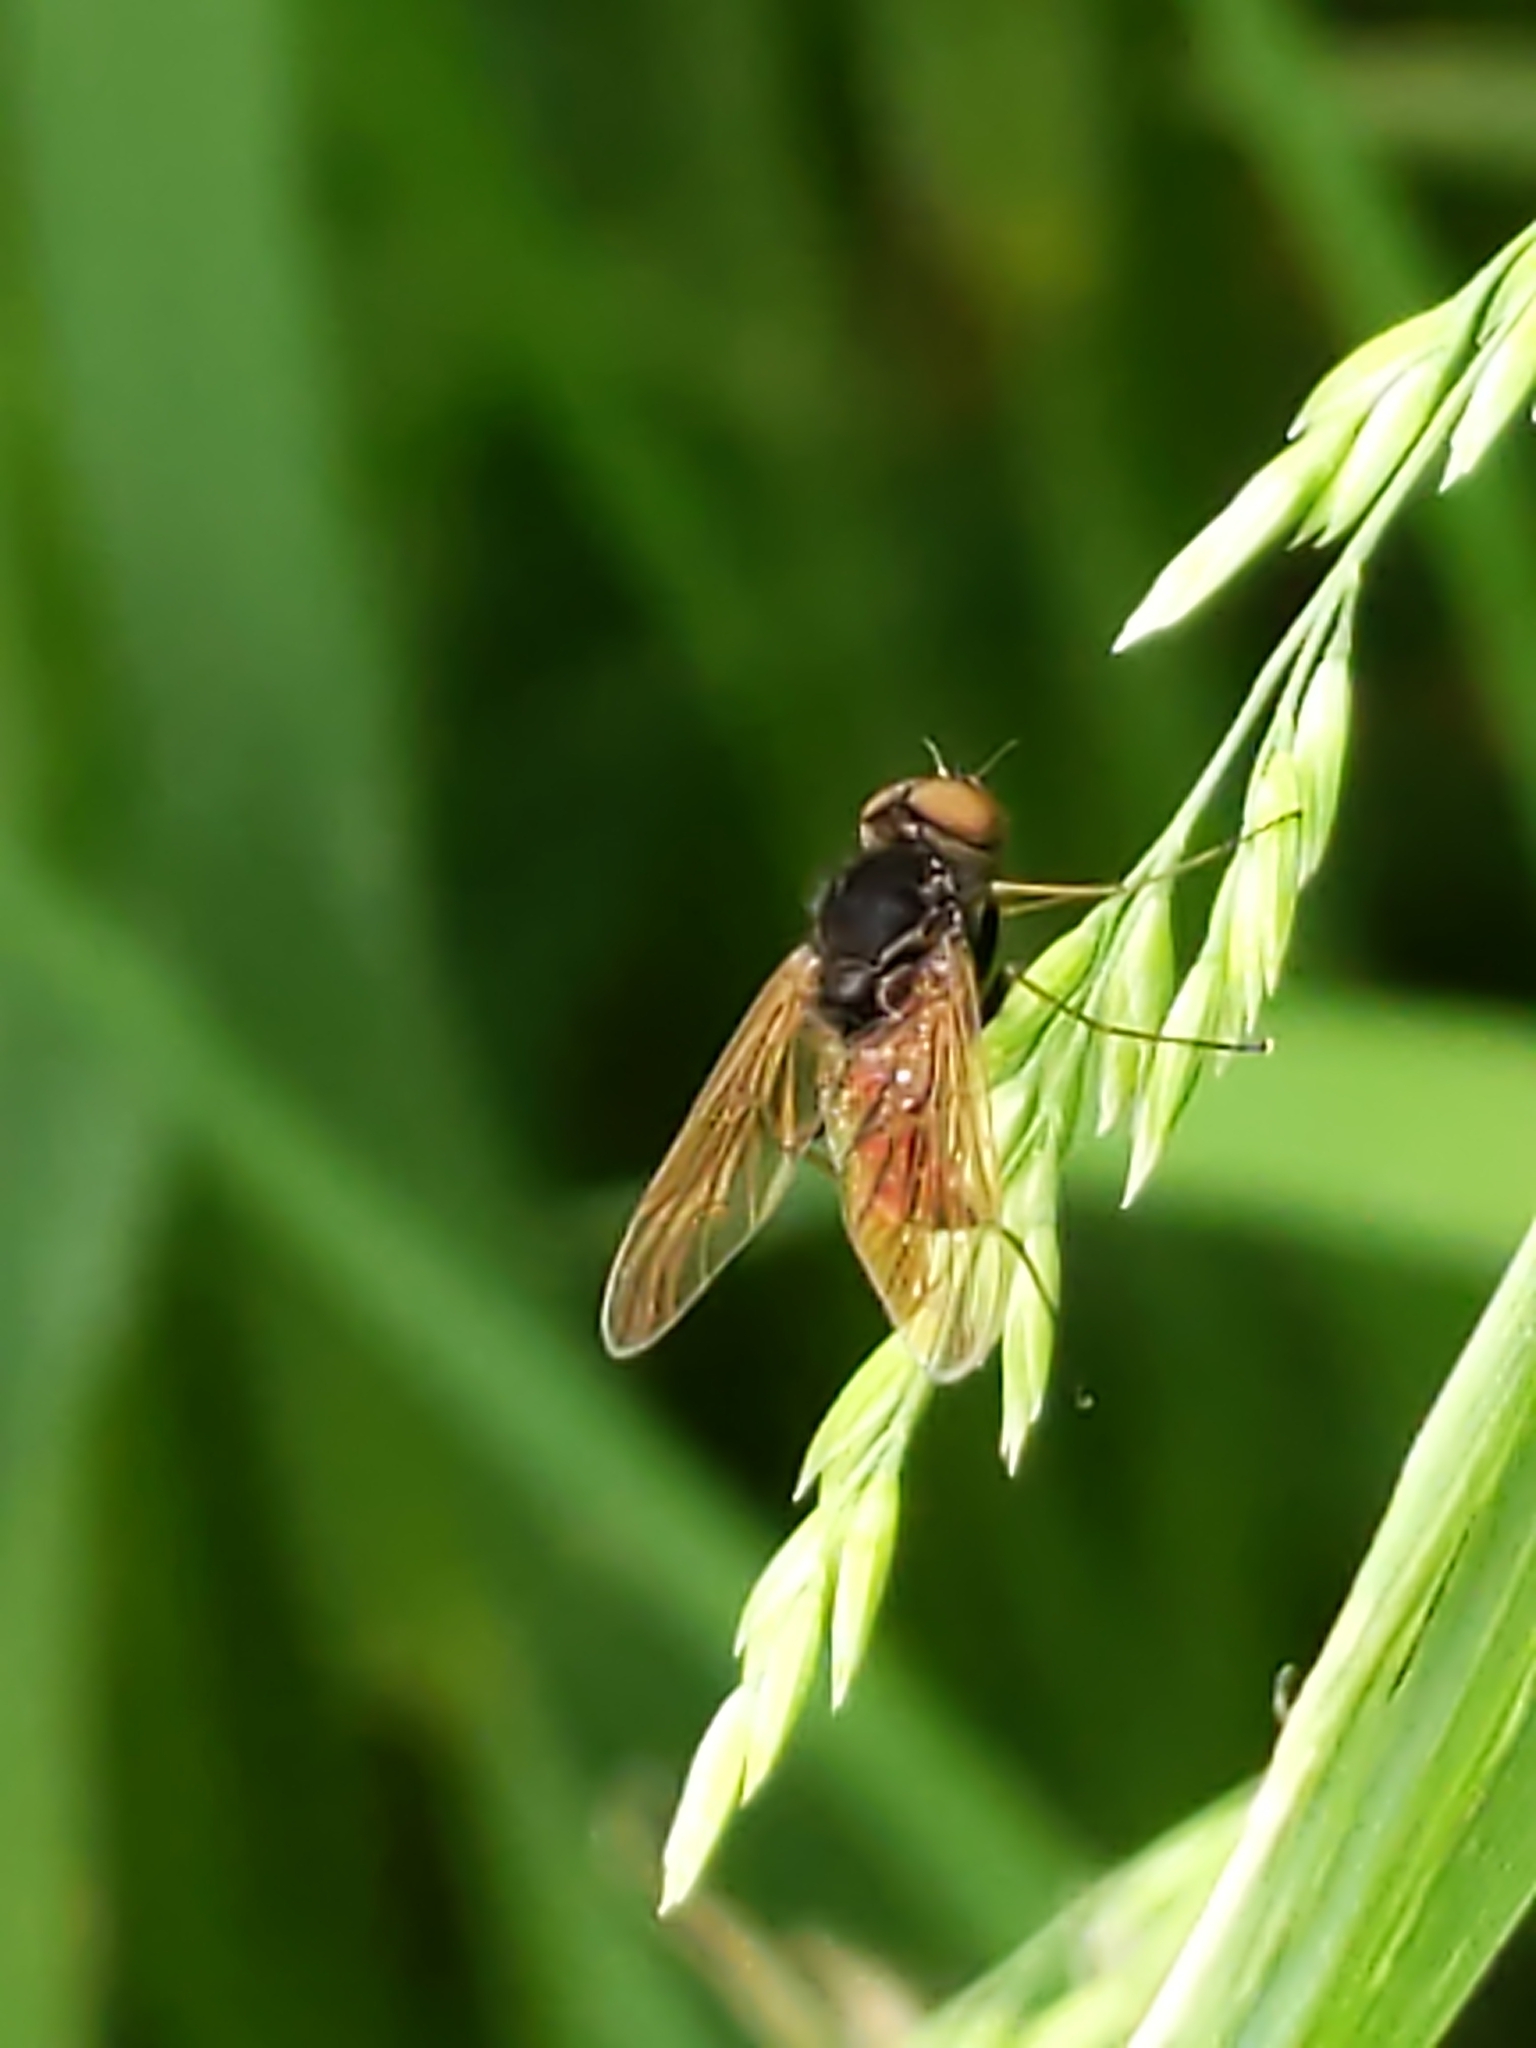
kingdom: Animalia
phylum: Arthropoda
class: Insecta
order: Diptera
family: Rhagionidae
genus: Chrysopilus
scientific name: Chrysopilus proximus
